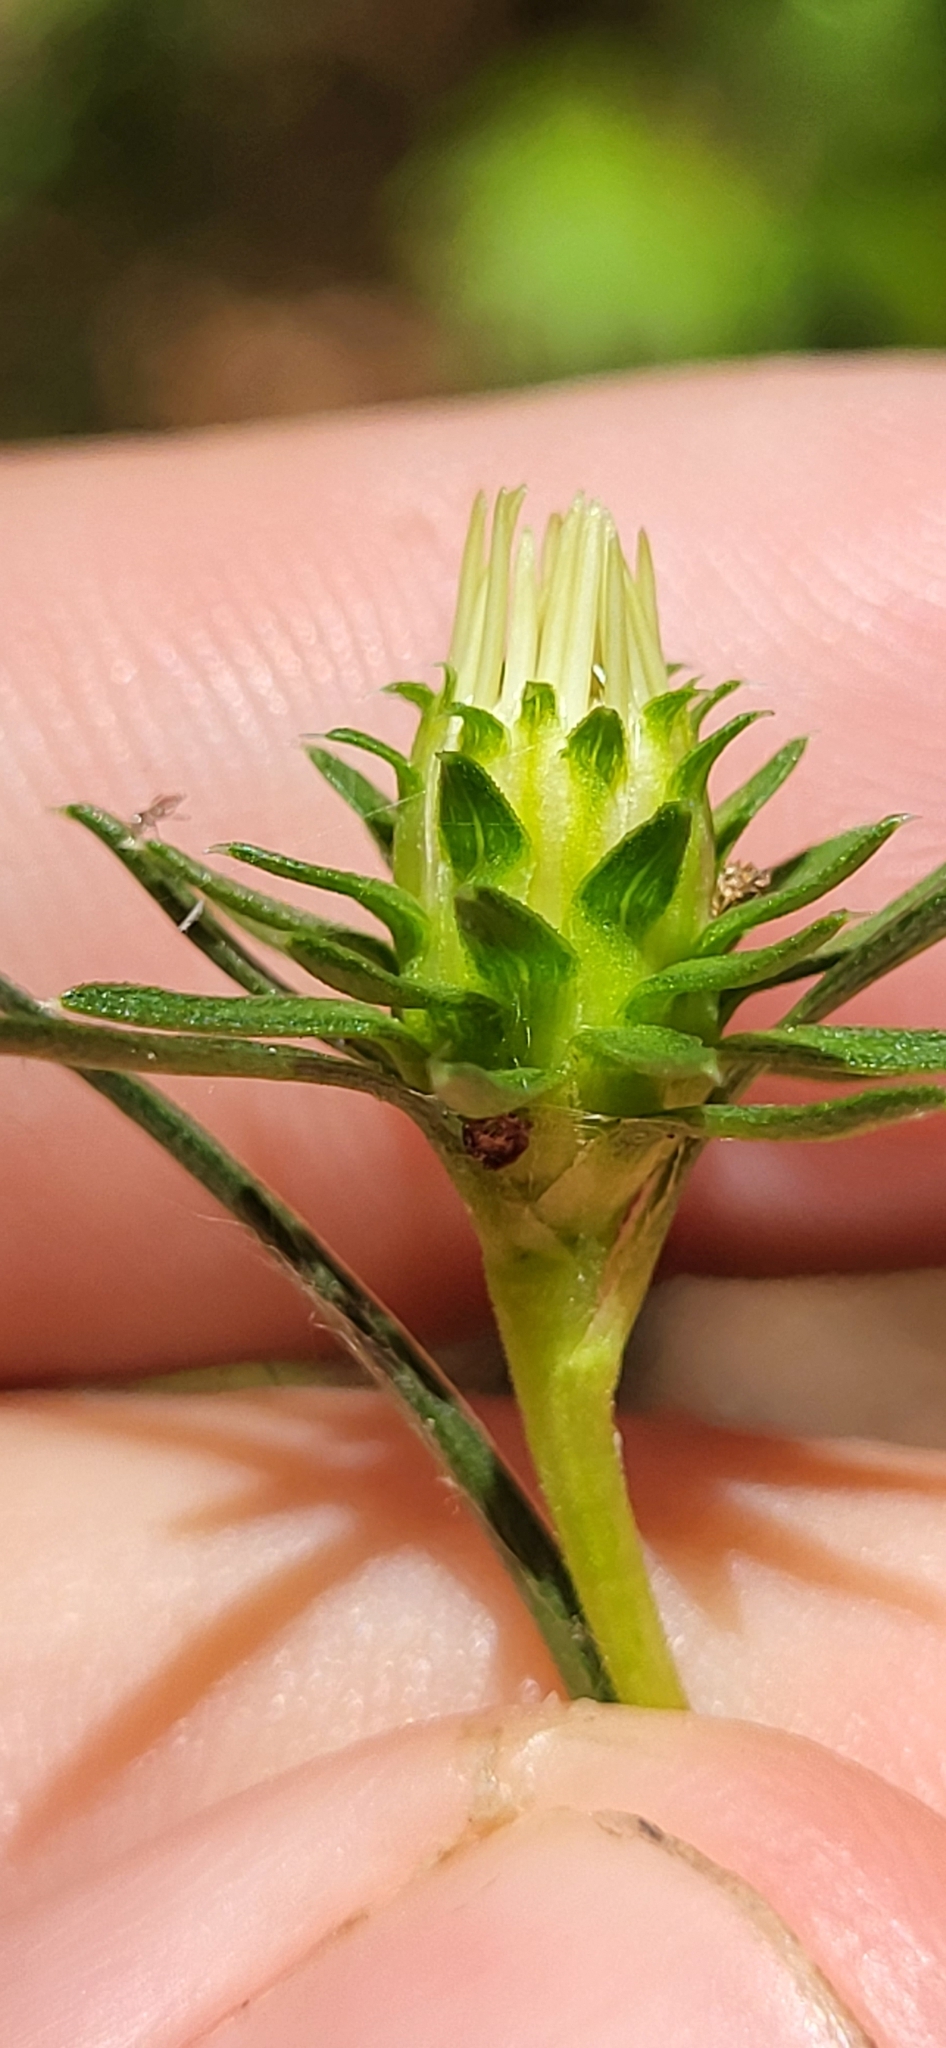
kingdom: Plantae
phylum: Tracheophyta
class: Magnoliopsida
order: Asterales
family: Asteraceae
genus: Eurybia
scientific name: Eurybia hemispherica
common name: Showy aster
